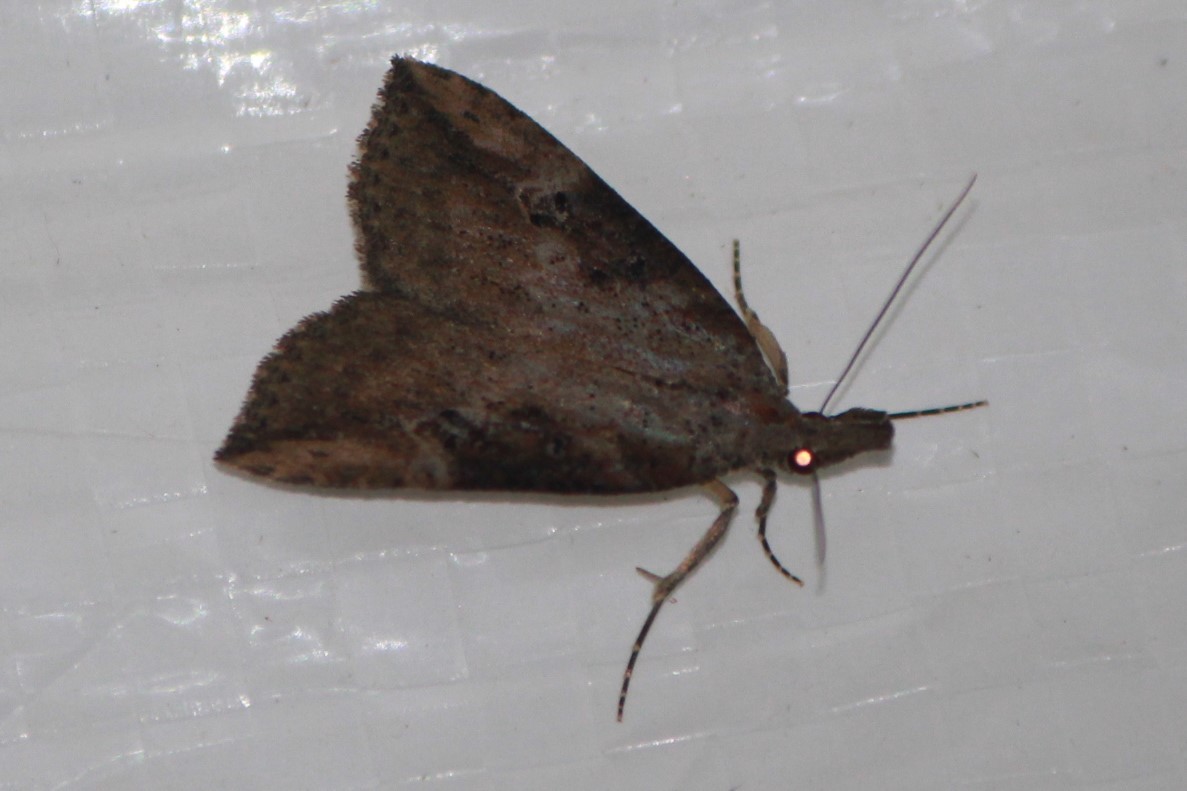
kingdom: Animalia
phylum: Arthropoda
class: Insecta
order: Lepidoptera
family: Erebidae
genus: Hypena
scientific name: Hypena scabra
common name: Green cloverworm
